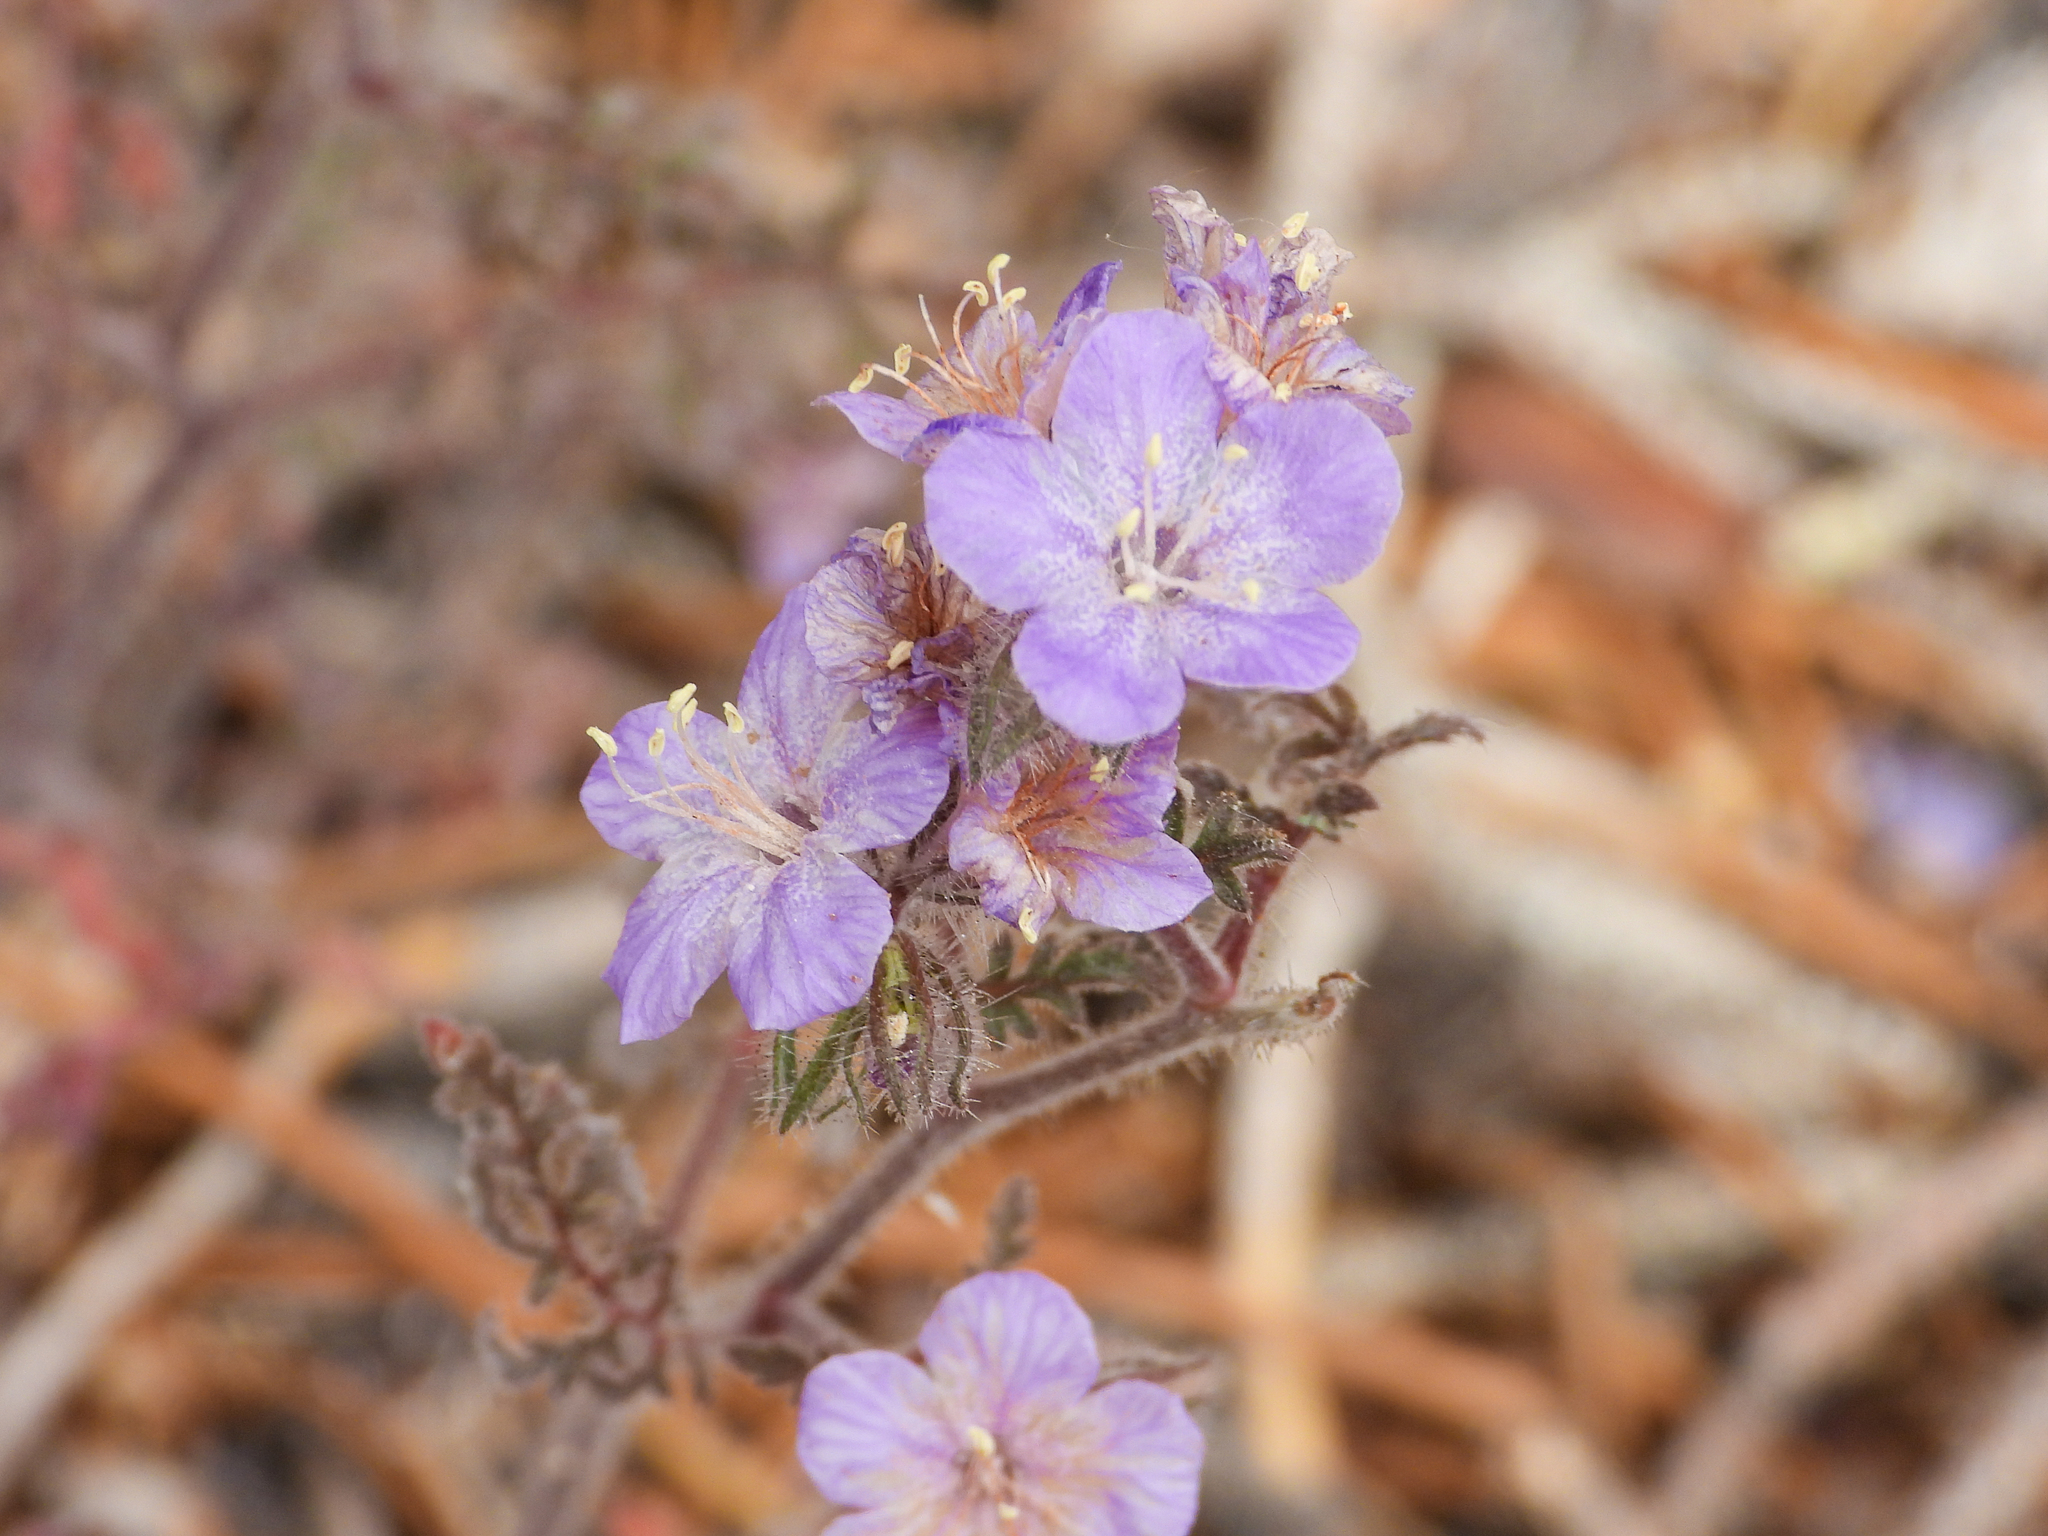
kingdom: Plantae
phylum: Tracheophyta
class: Magnoliopsida
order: Boraginales
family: Hydrophyllaceae
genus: Phacelia
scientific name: Phacelia vallis-mortae
